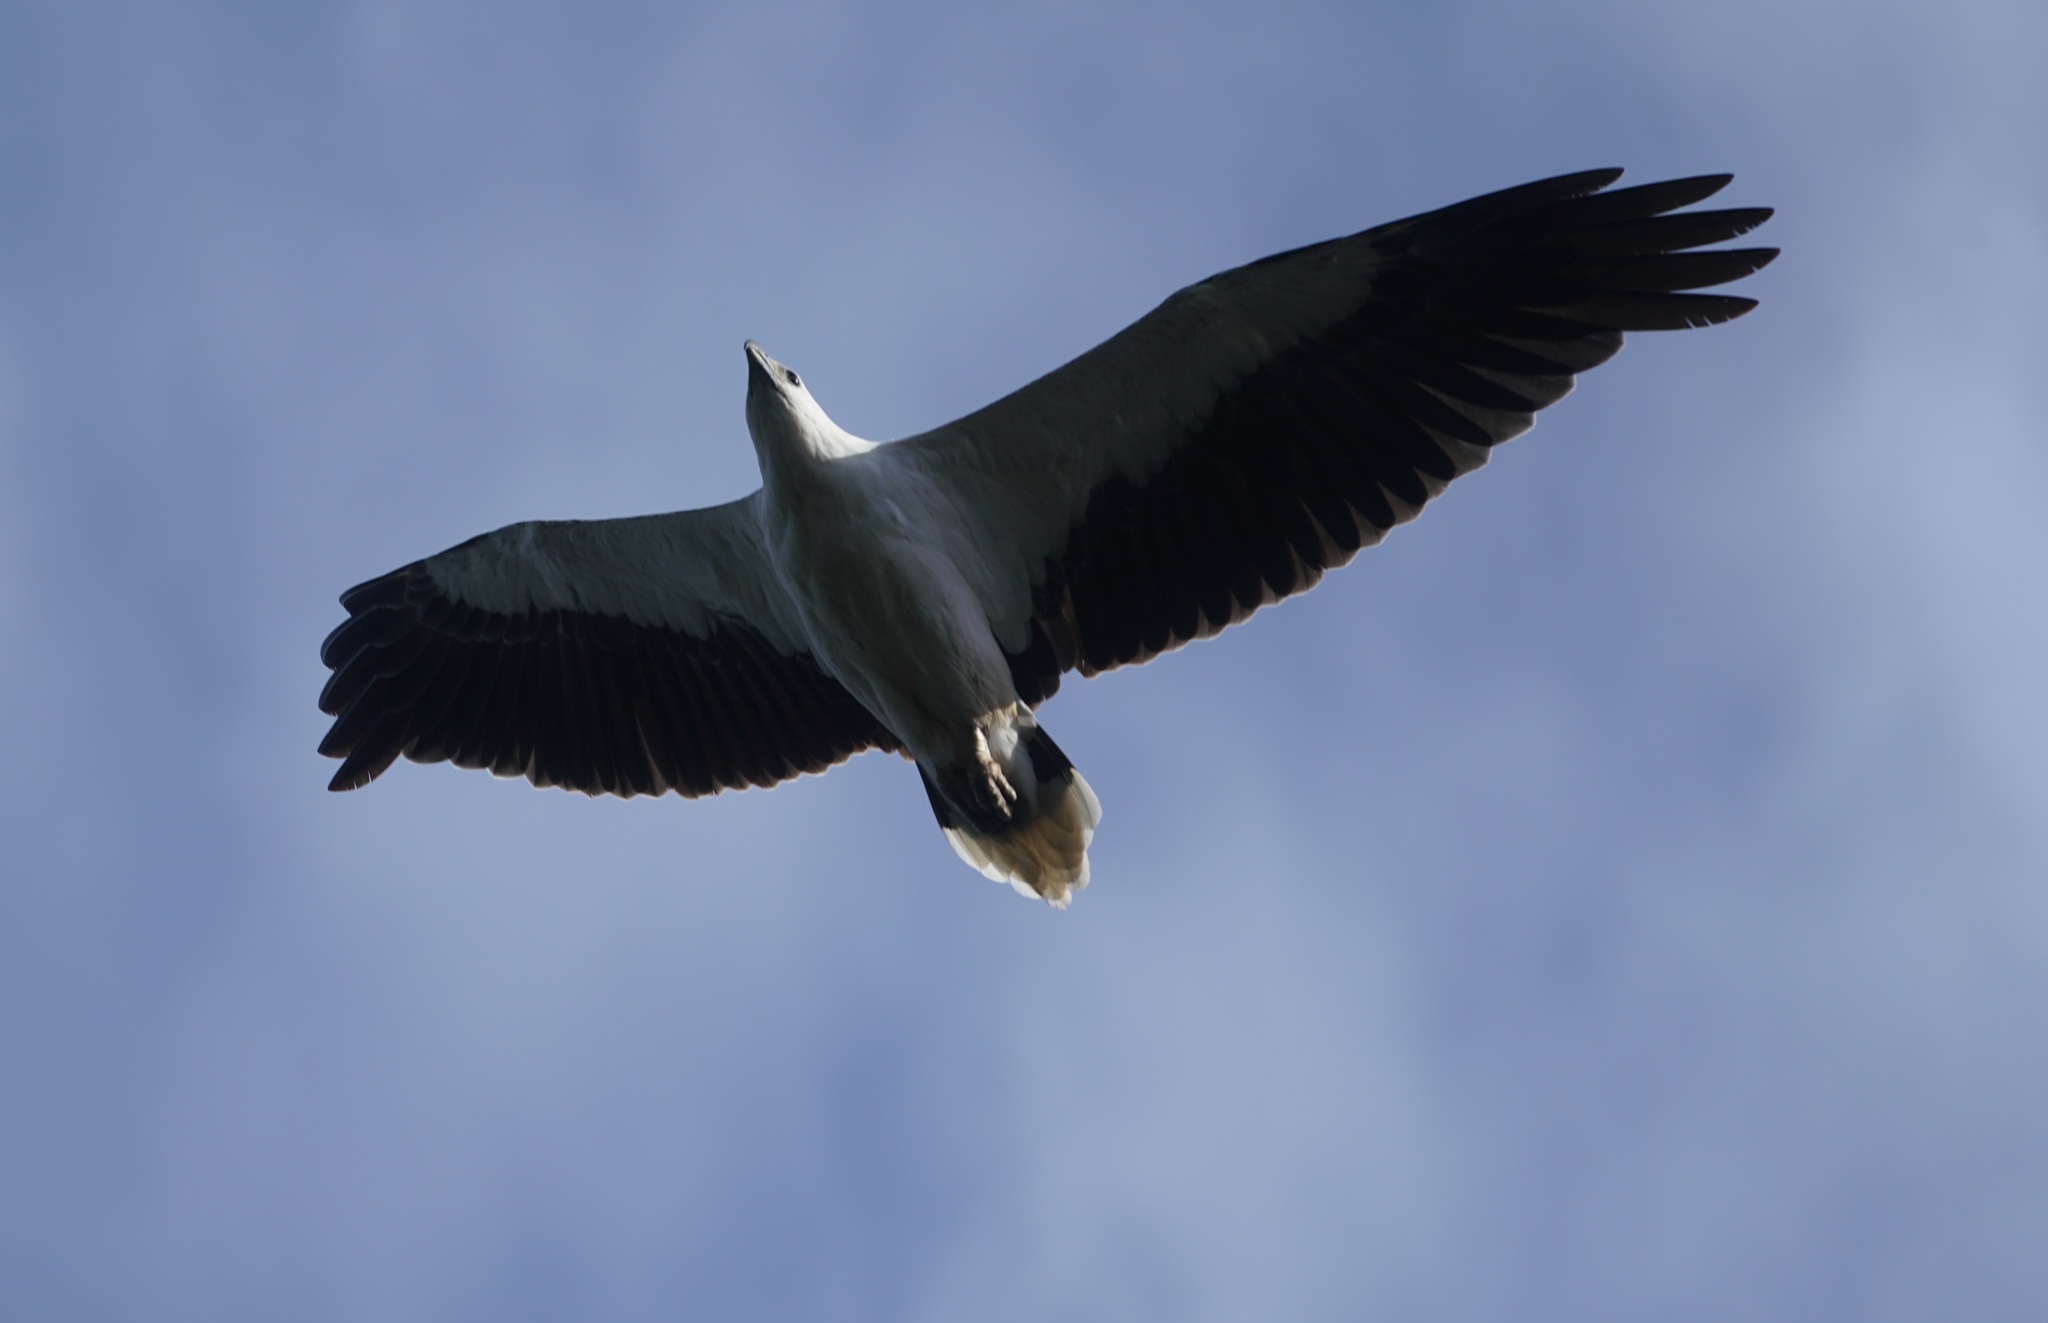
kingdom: Animalia
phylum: Chordata
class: Aves
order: Accipitriformes
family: Accipitridae
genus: Haliaeetus
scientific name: Haliaeetus leucogaster
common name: White-bellied sea eagle
